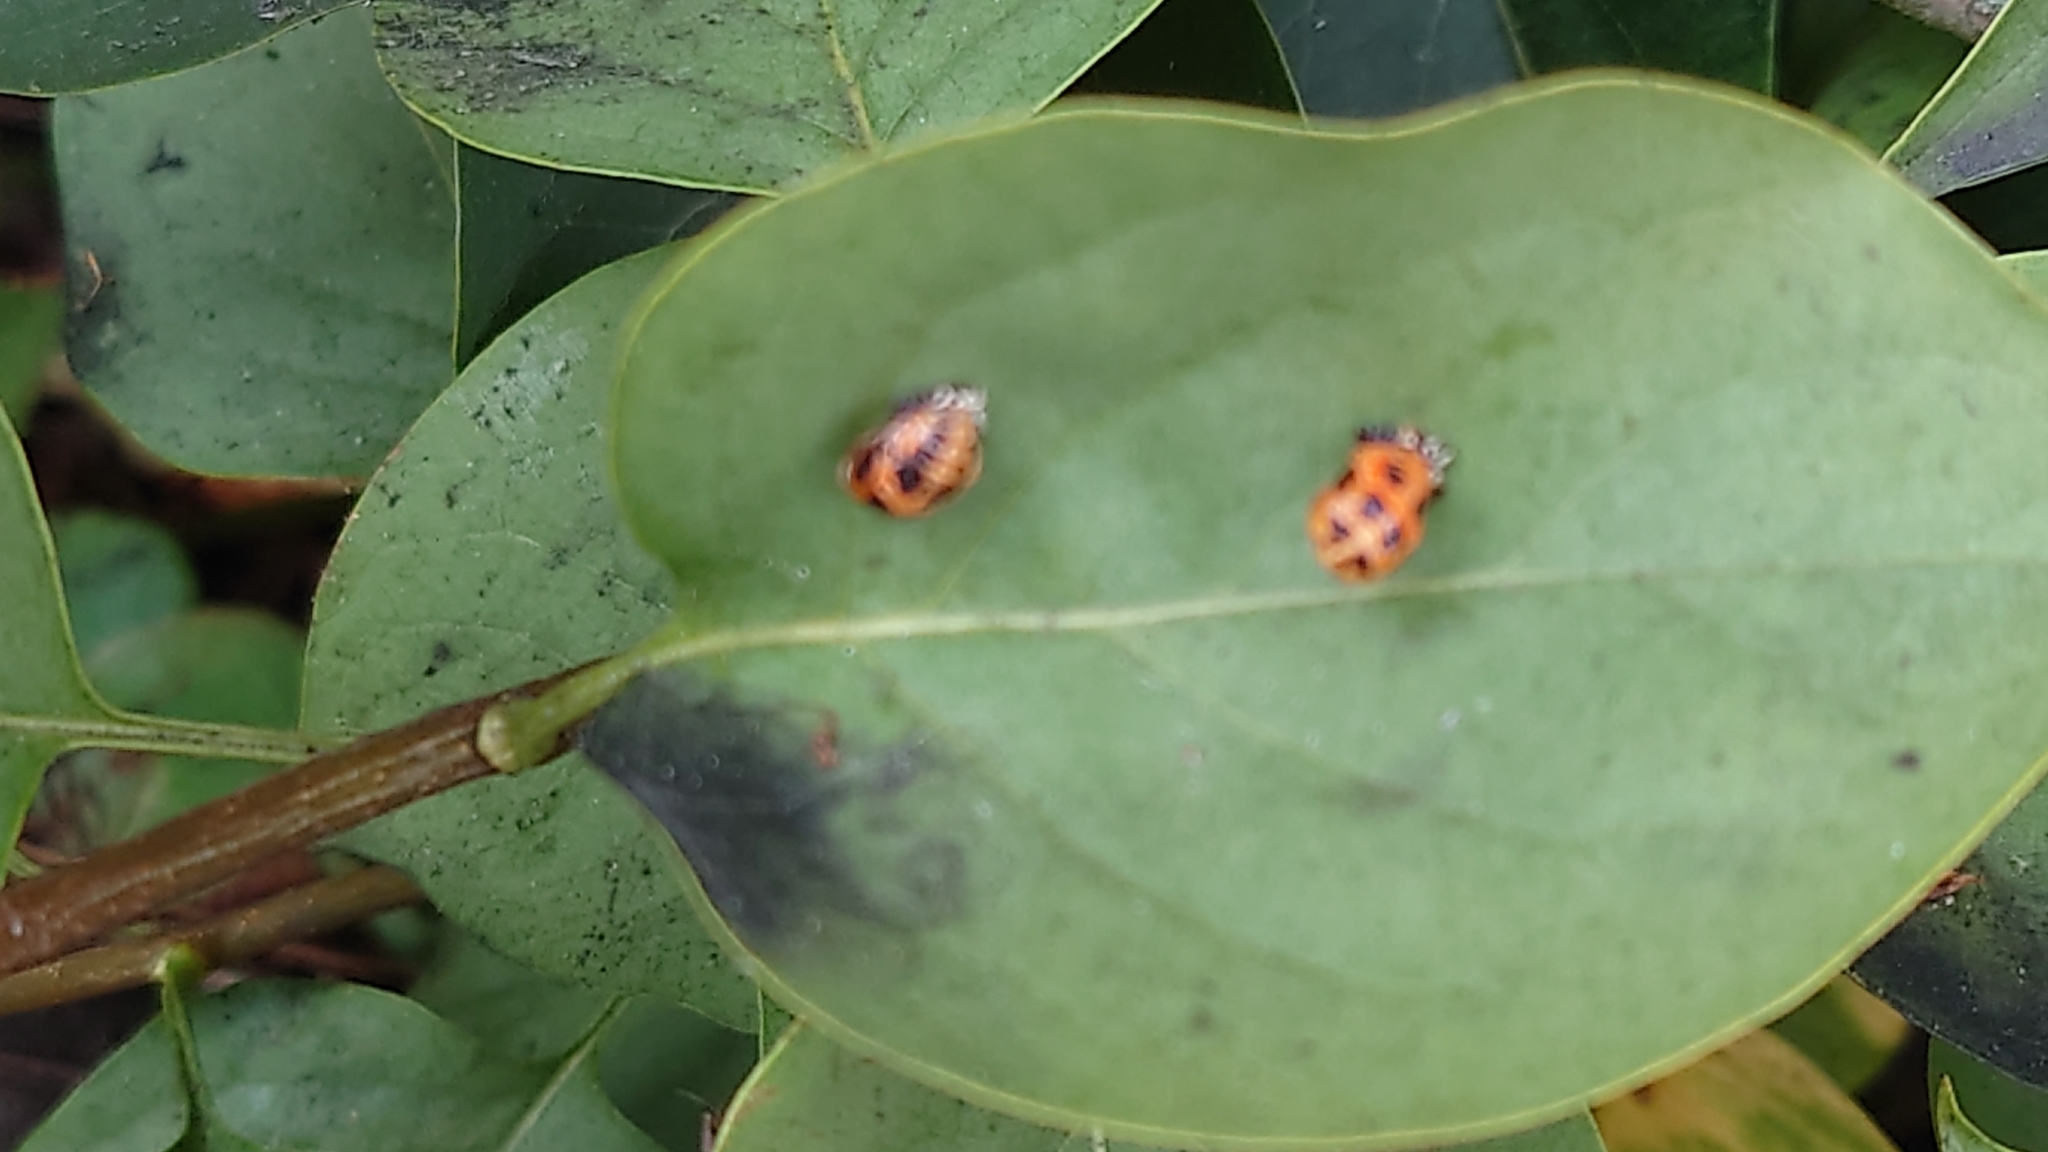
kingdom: Animalia
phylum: Arthropoda
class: Insecta
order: Coleoptera
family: Coccinellidae
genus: Harmonia
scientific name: Harmonia axyridis
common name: Harlequin ladybird
